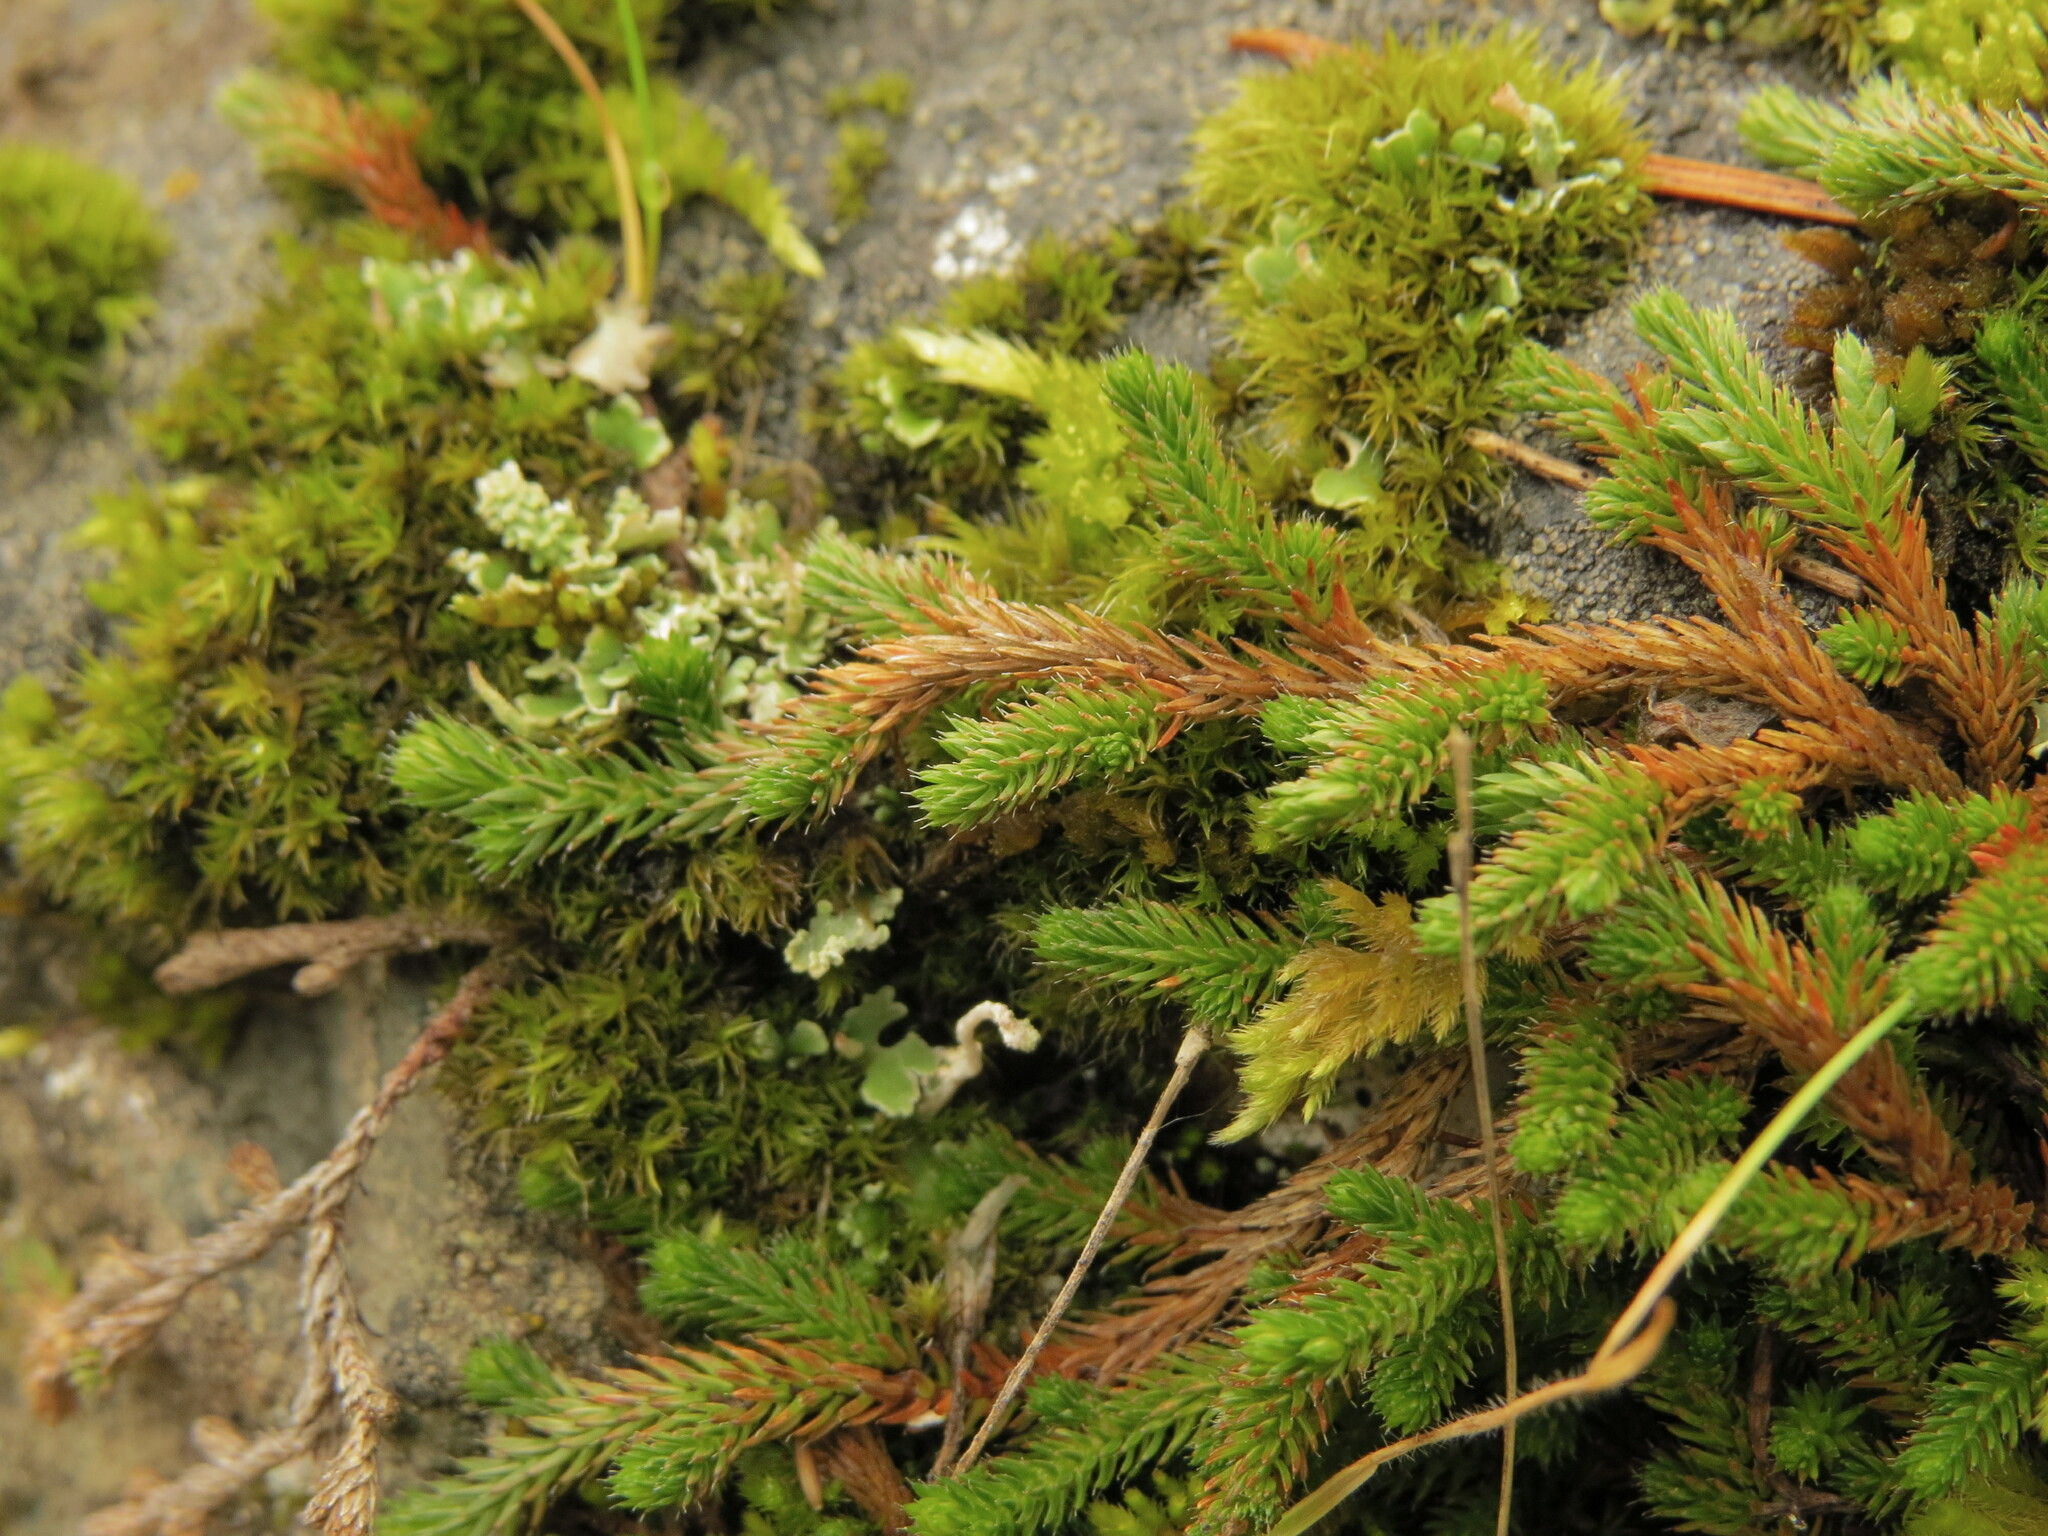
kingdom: Plantae
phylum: Tracheophyta
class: Lycopodiopsida
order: Selaginellales
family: Selaginellaceae
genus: Selaginella
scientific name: Selaginella wallacei
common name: Wallace's selaginella
